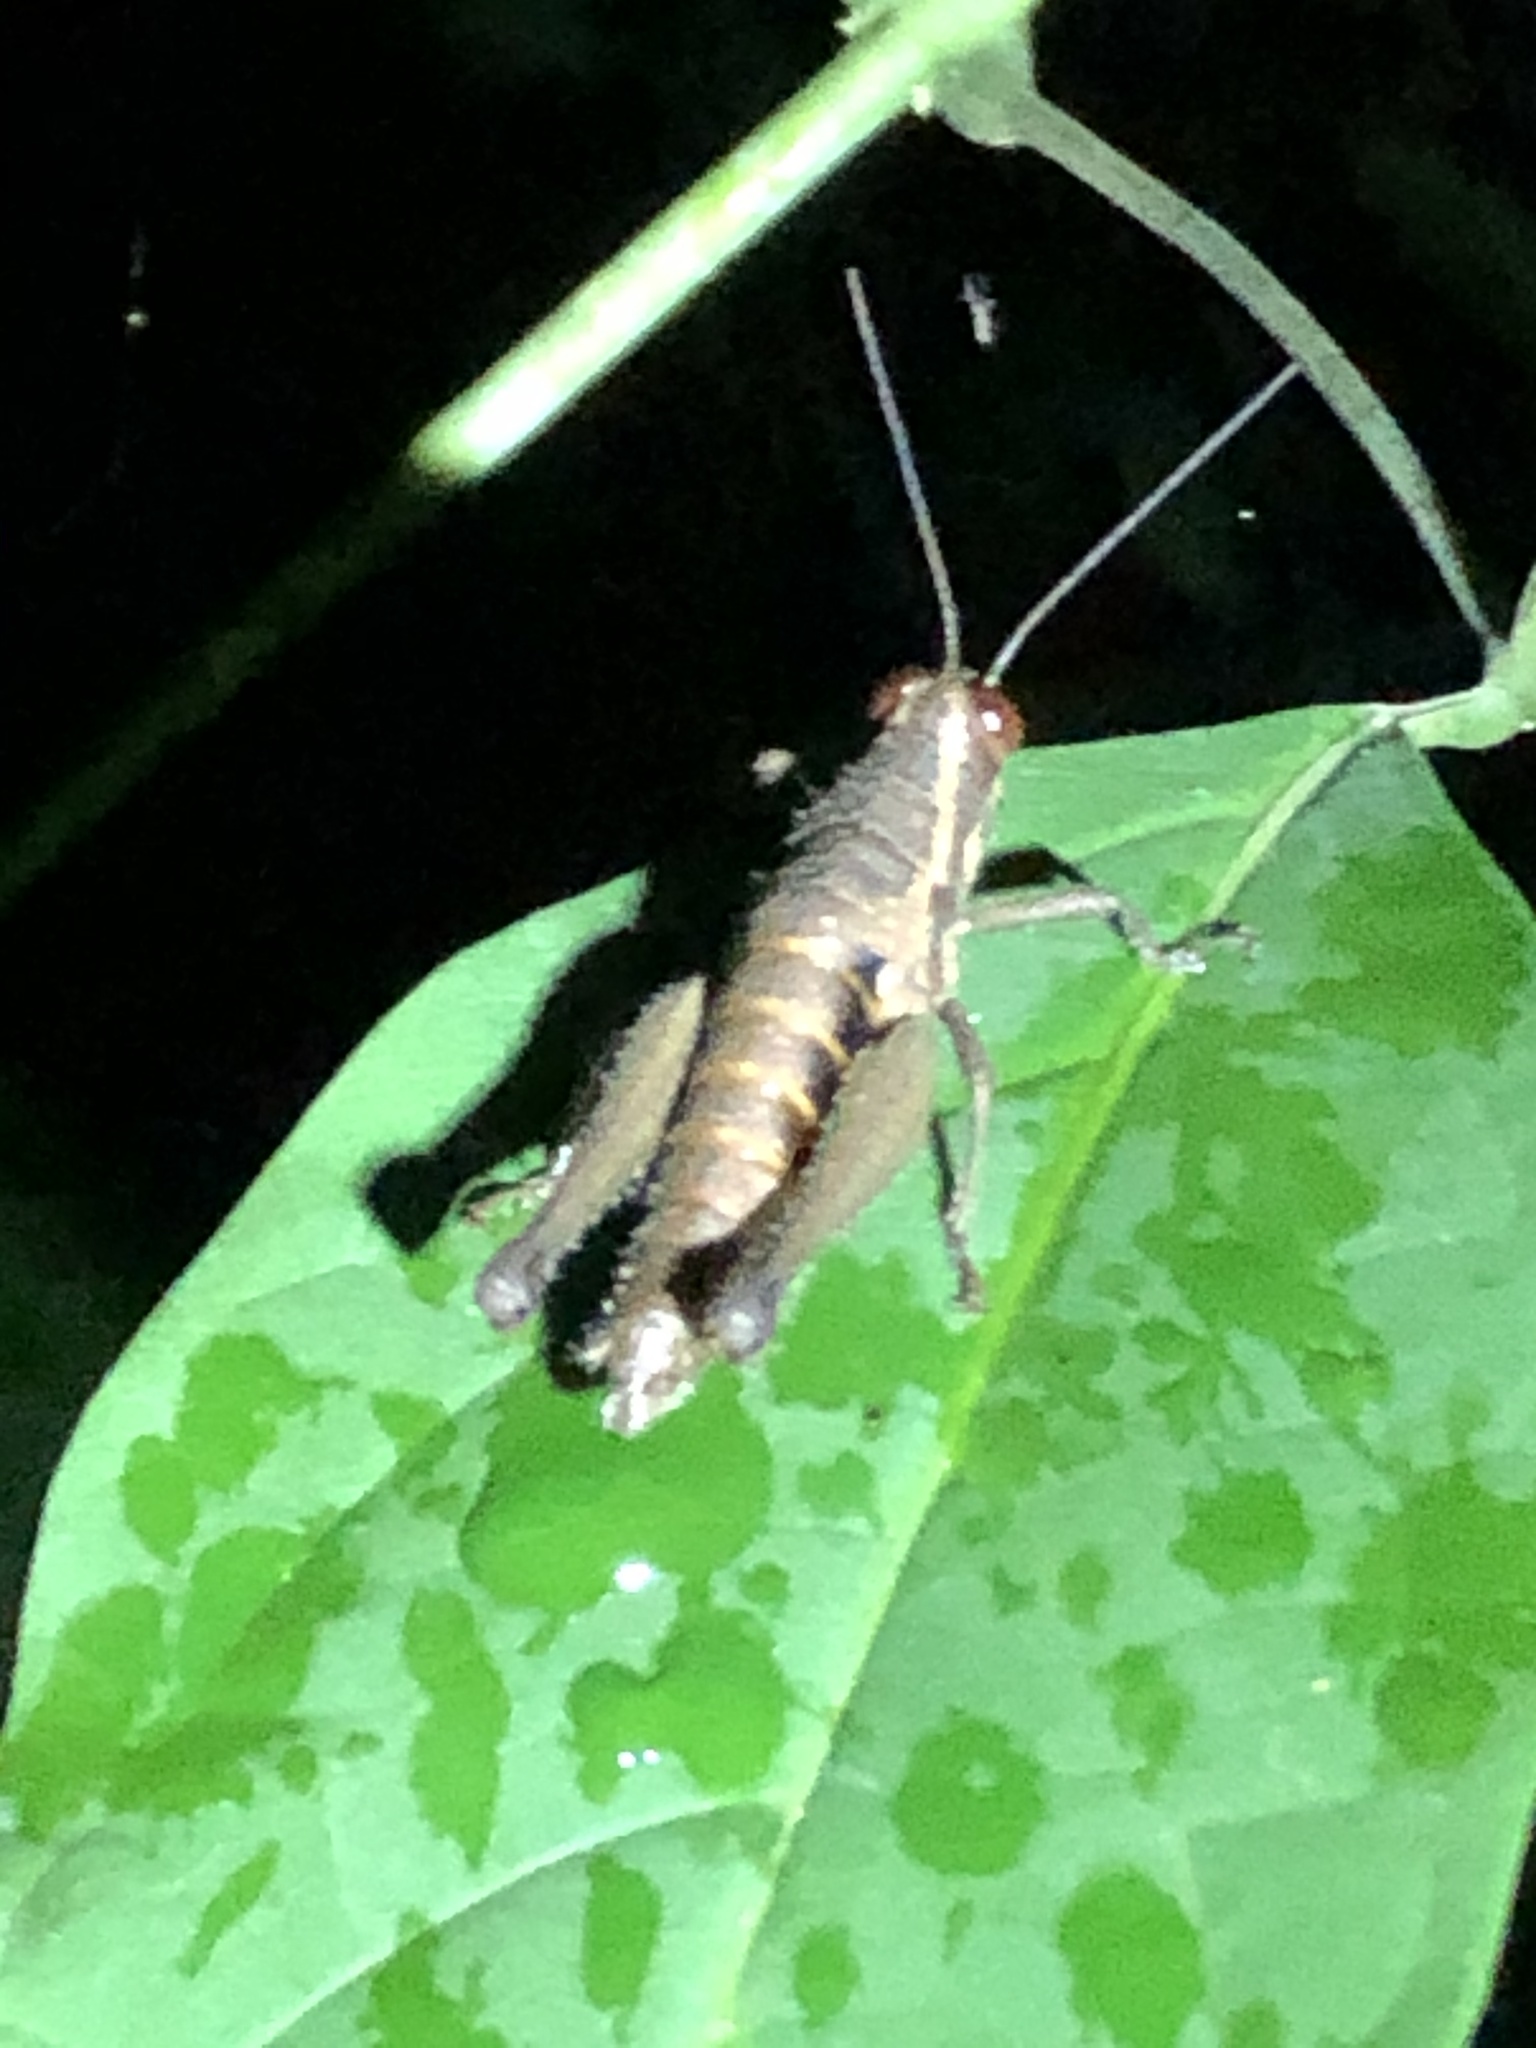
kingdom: Animalia
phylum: Arthropoda
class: Insecta
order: Orthoptera
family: Acrididae
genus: Stenelutracris
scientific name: Stenelutracris lignicola
